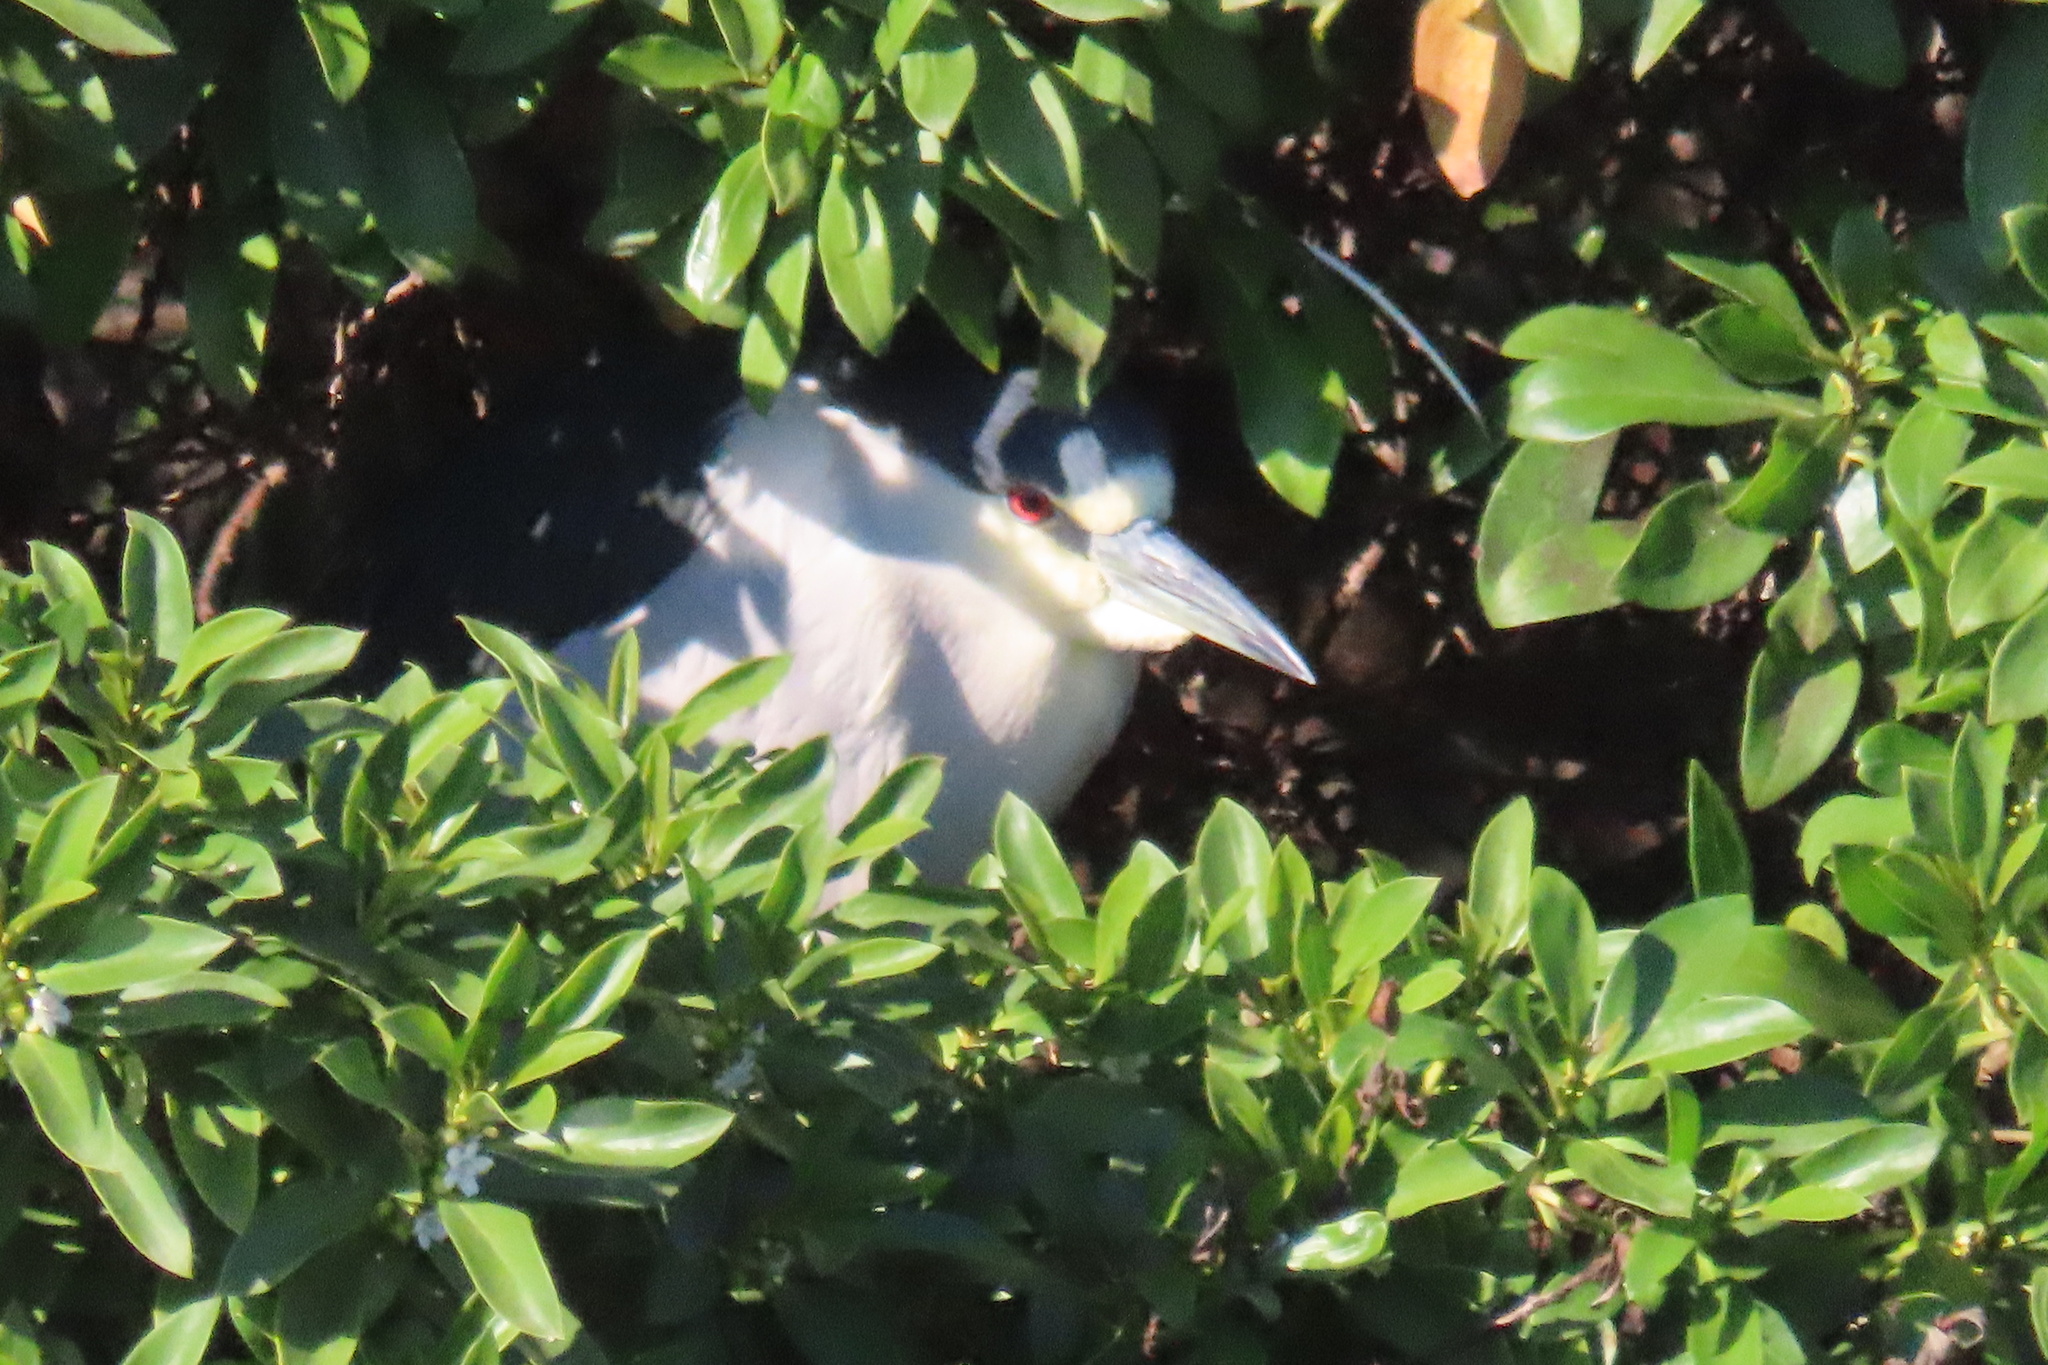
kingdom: Animalia
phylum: Chordata
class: Aves
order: Pelecaniformes
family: Ardeidae
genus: Nycticorax
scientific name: Nycticorax nycticorax
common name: Black-crowned night heron
